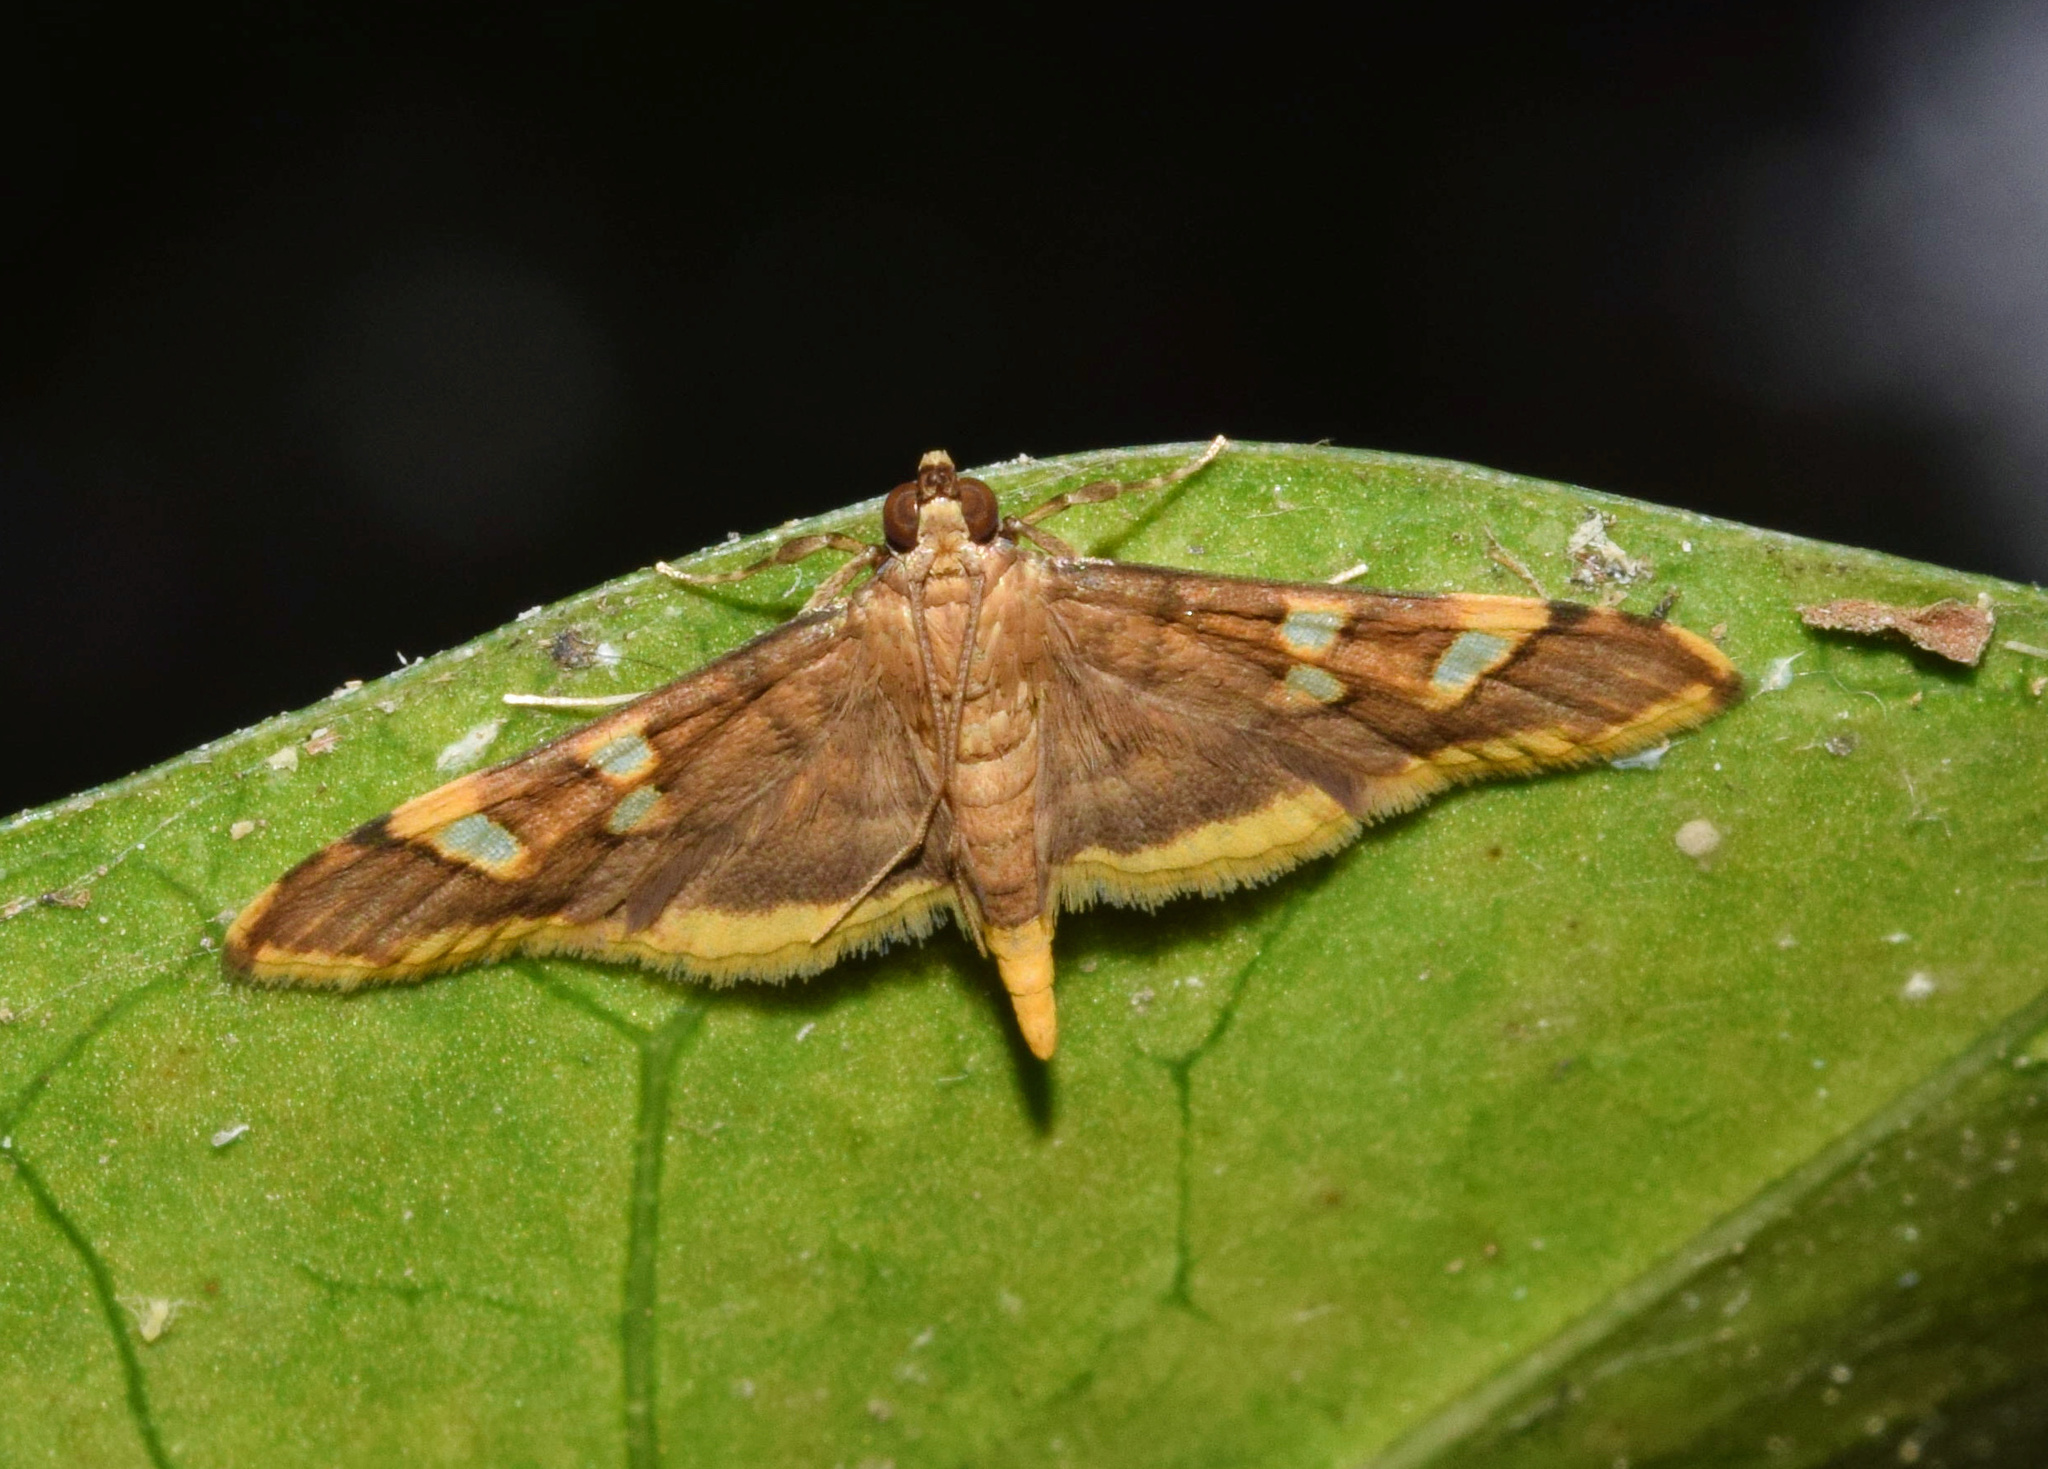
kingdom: Animalia
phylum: Arthropoda
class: Insecta
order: Lepidoptera
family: Crambidae
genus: Prophantis
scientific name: Prophantis smaragdina
